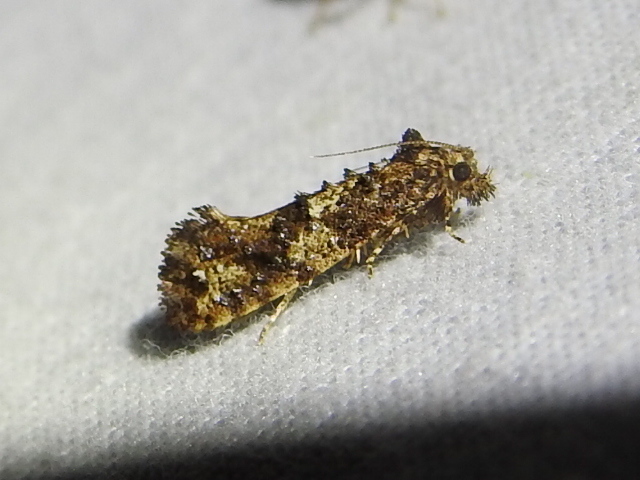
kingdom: Animalia
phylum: Arthropoda
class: Insecta
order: Lepidoptera
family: Tineidae
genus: Acrolophus
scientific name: Acrolophus cressoni
